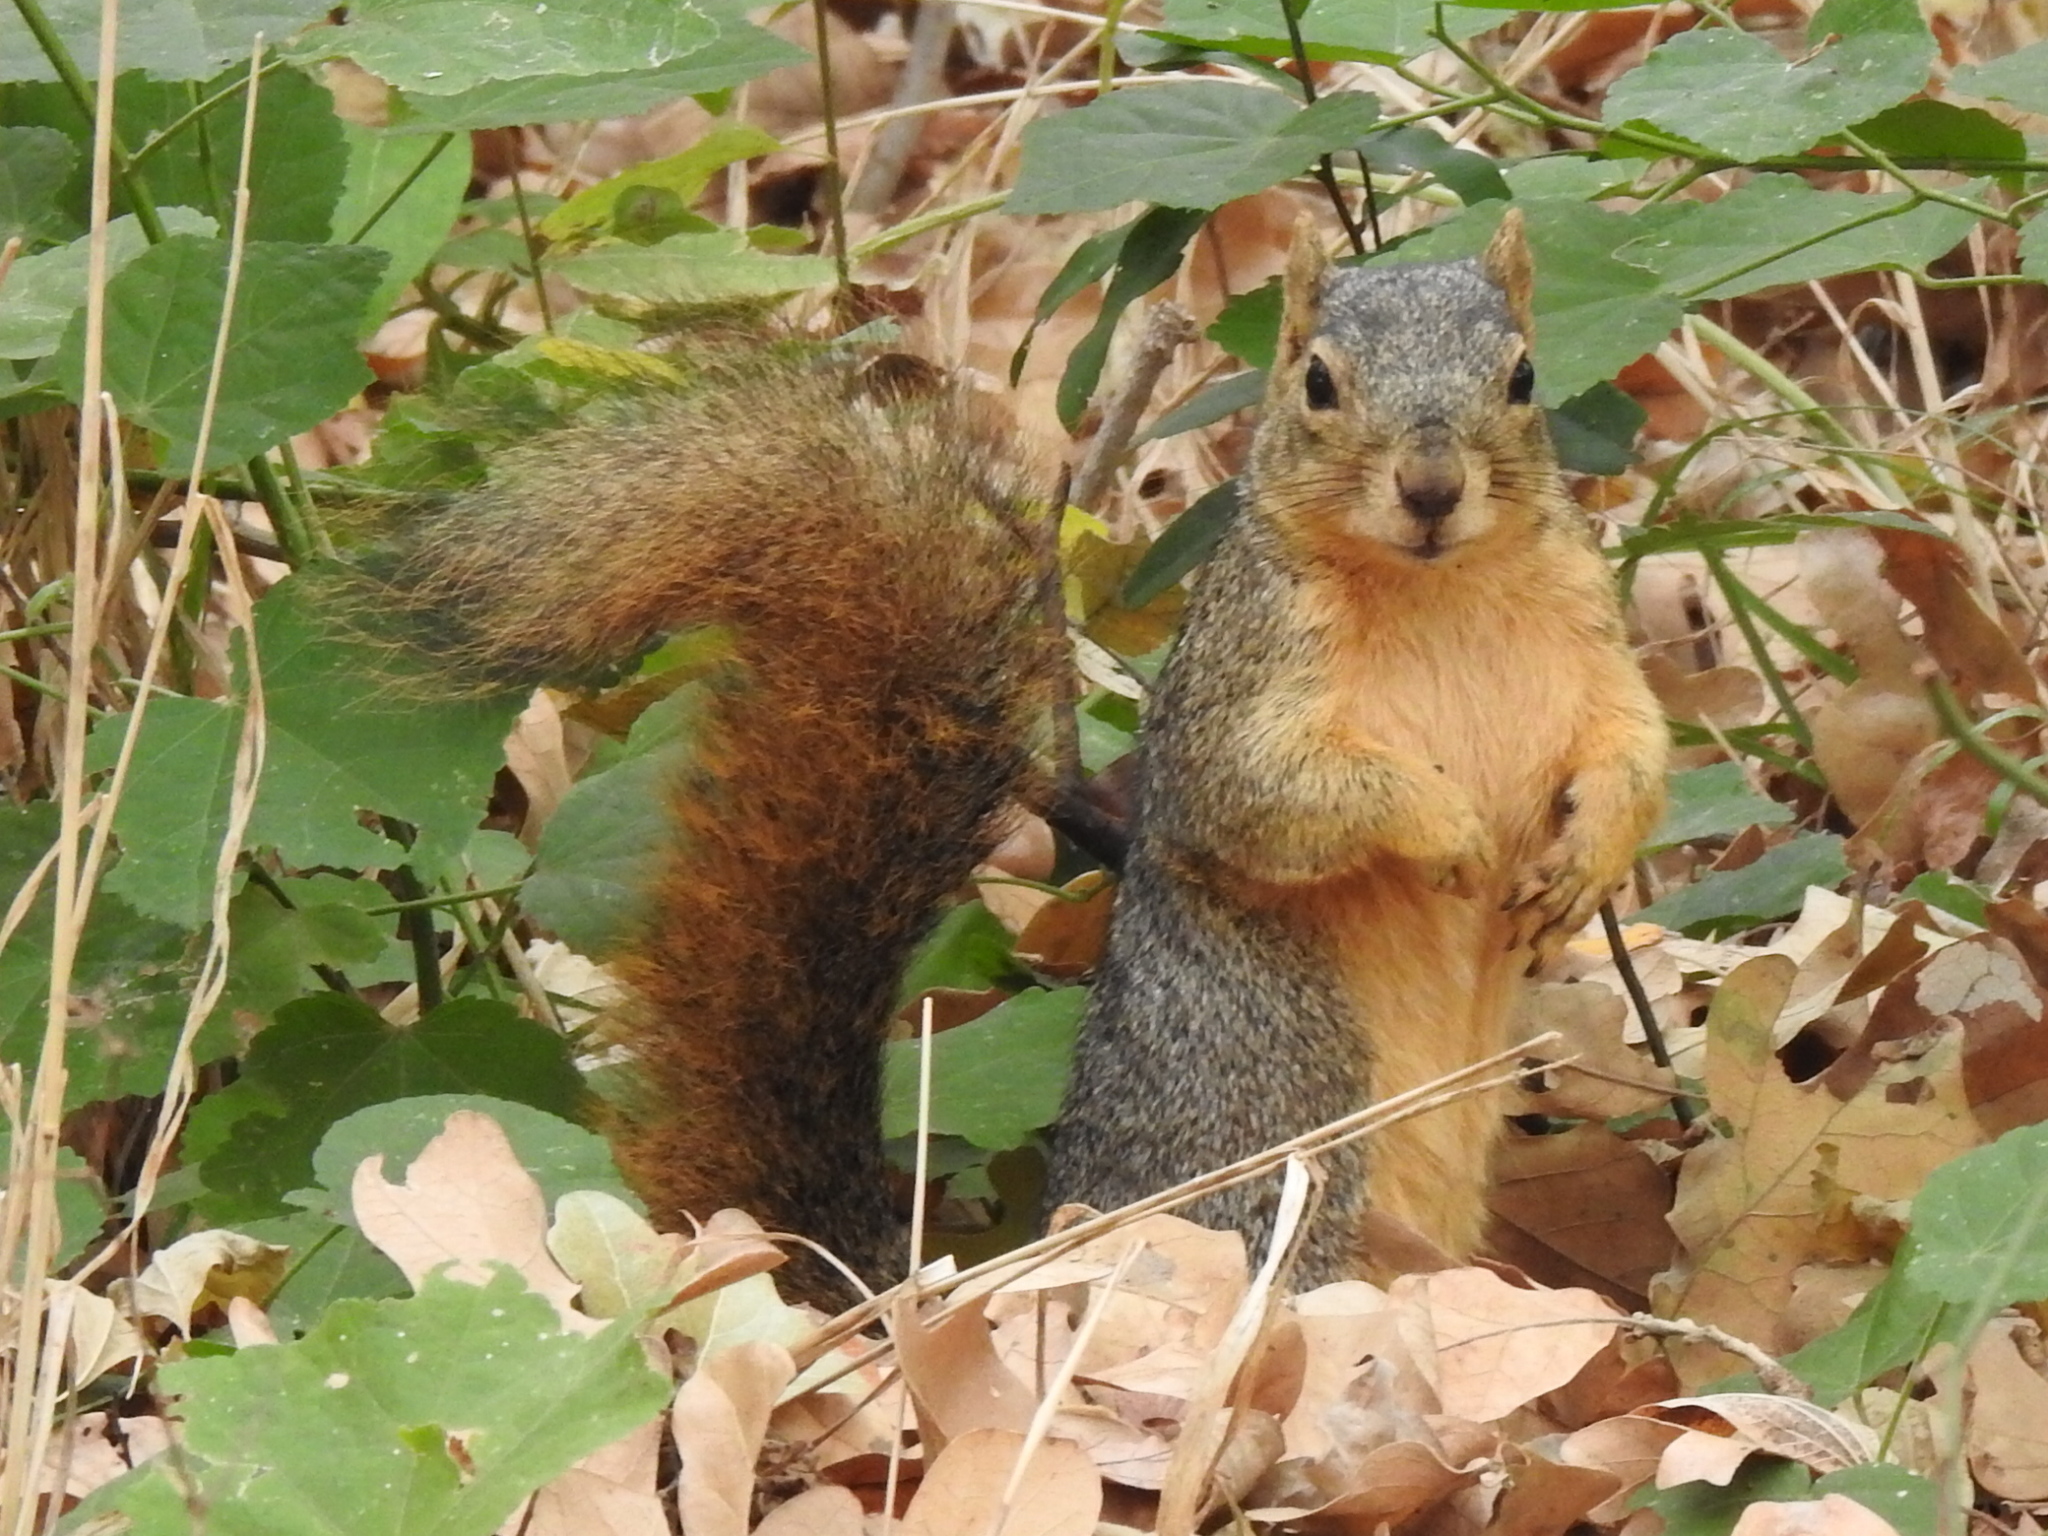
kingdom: Animalia
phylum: Chordata
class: Mammalia
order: Rodentia
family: Sciuridae
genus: Sciurus
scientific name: Sciurus niger
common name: Fox squirrel
